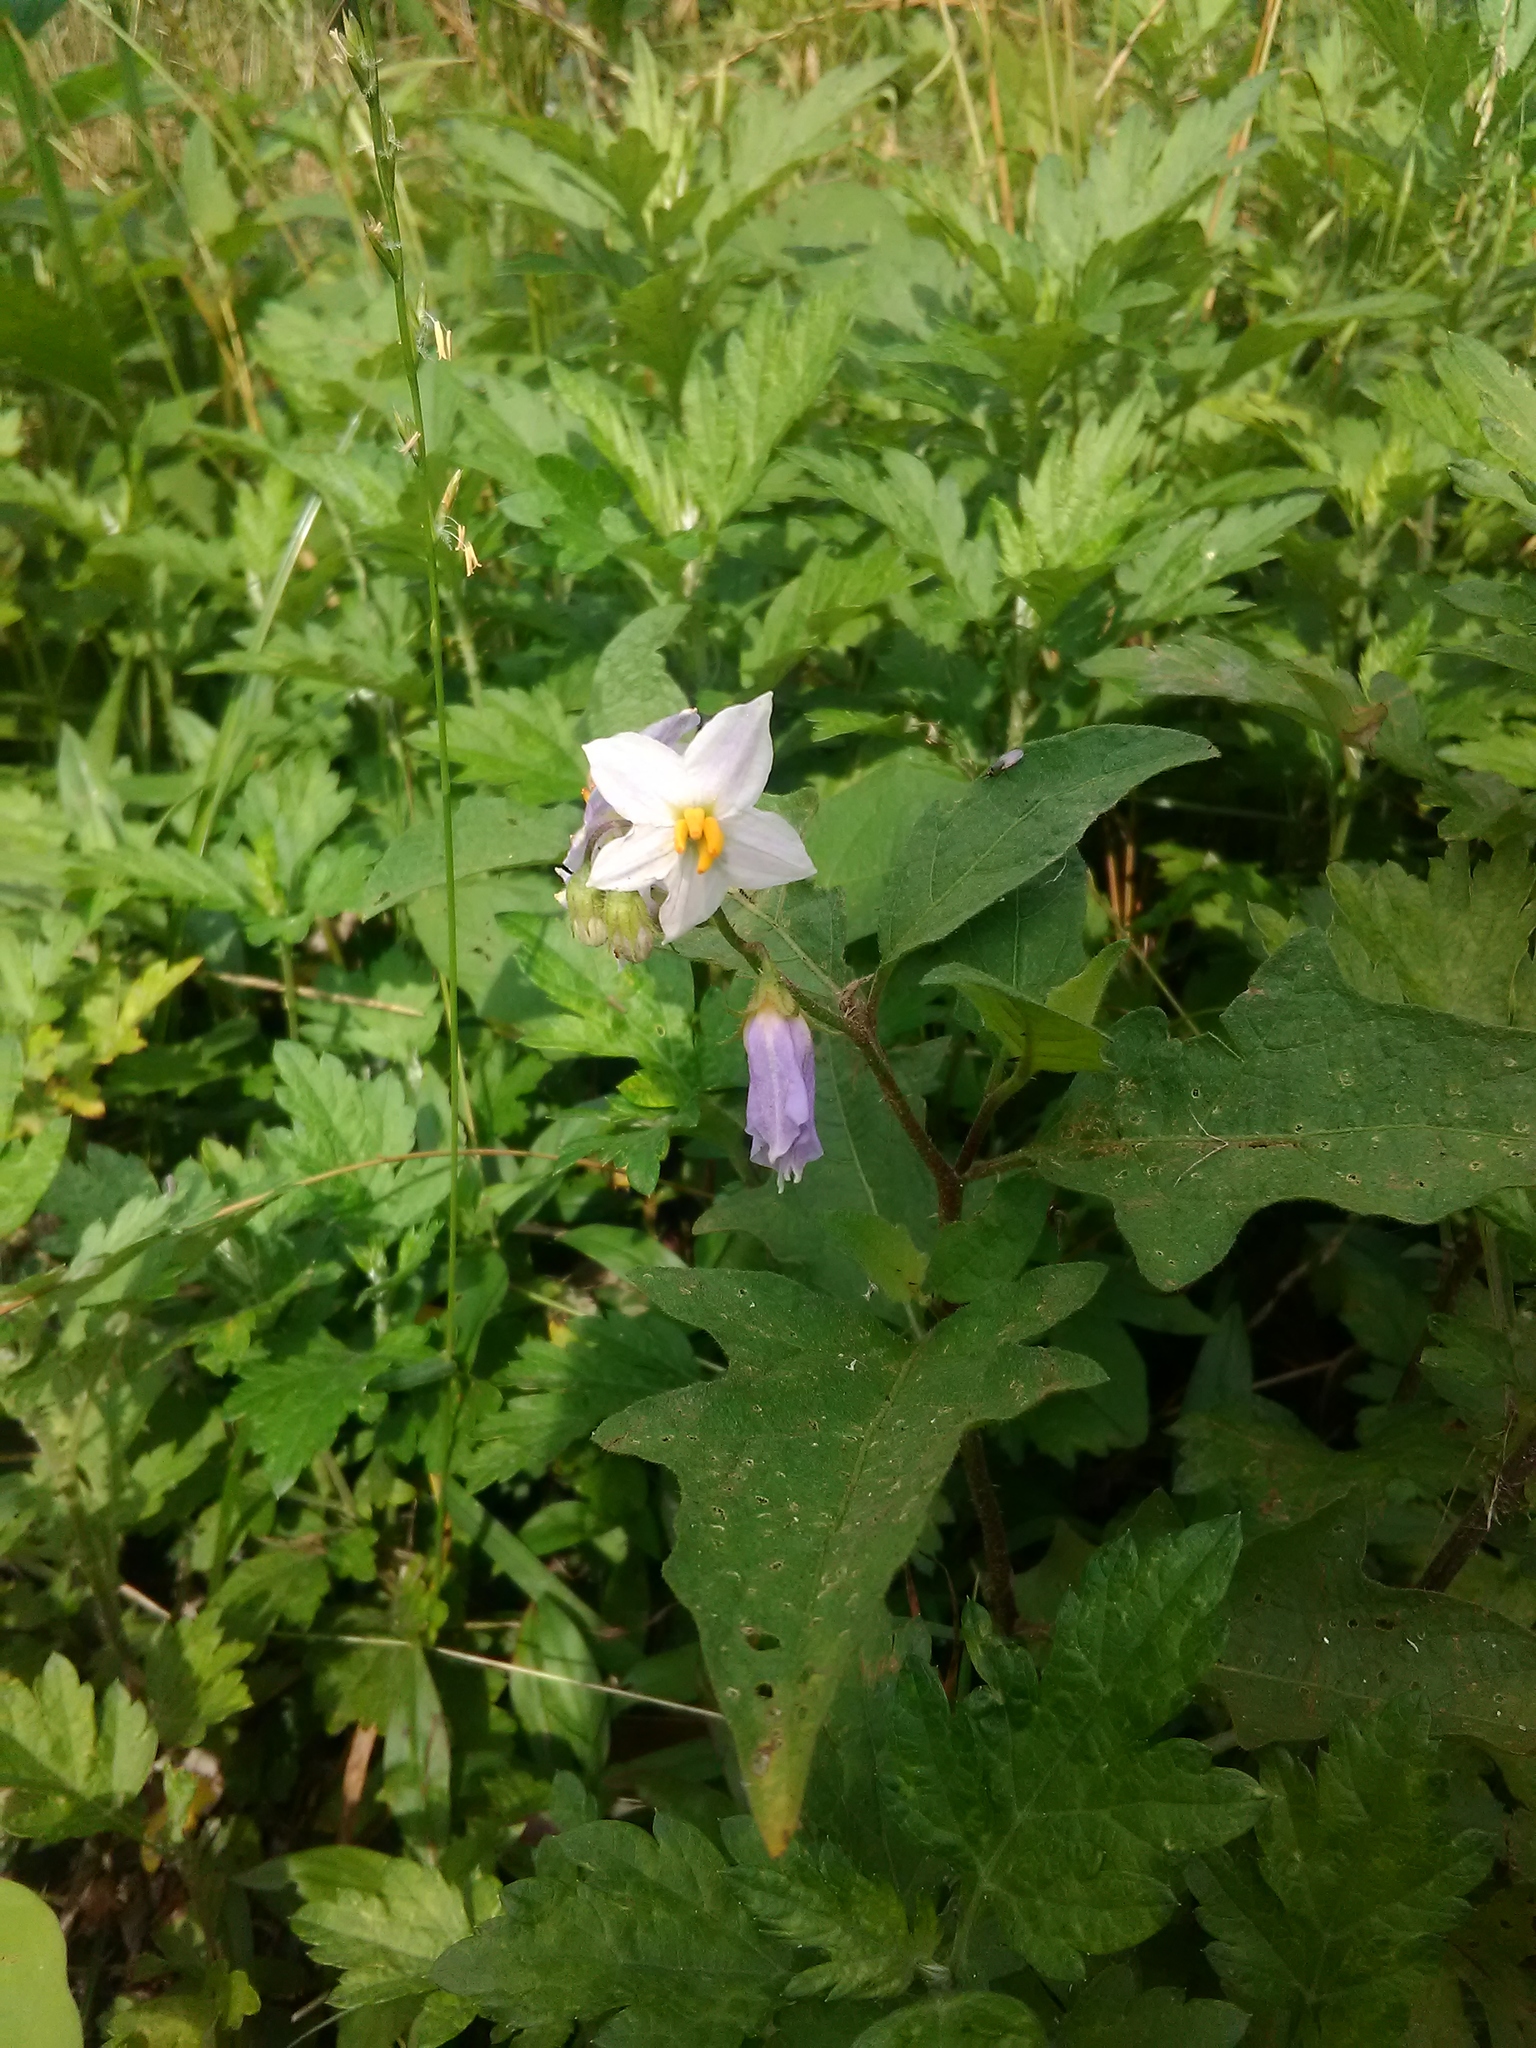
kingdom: Plantae
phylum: Tracheophyta
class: Magnoliopsida
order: Solanales
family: Solanaceae
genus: Solanum
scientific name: Solanum carolinense
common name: Horse-nettle
